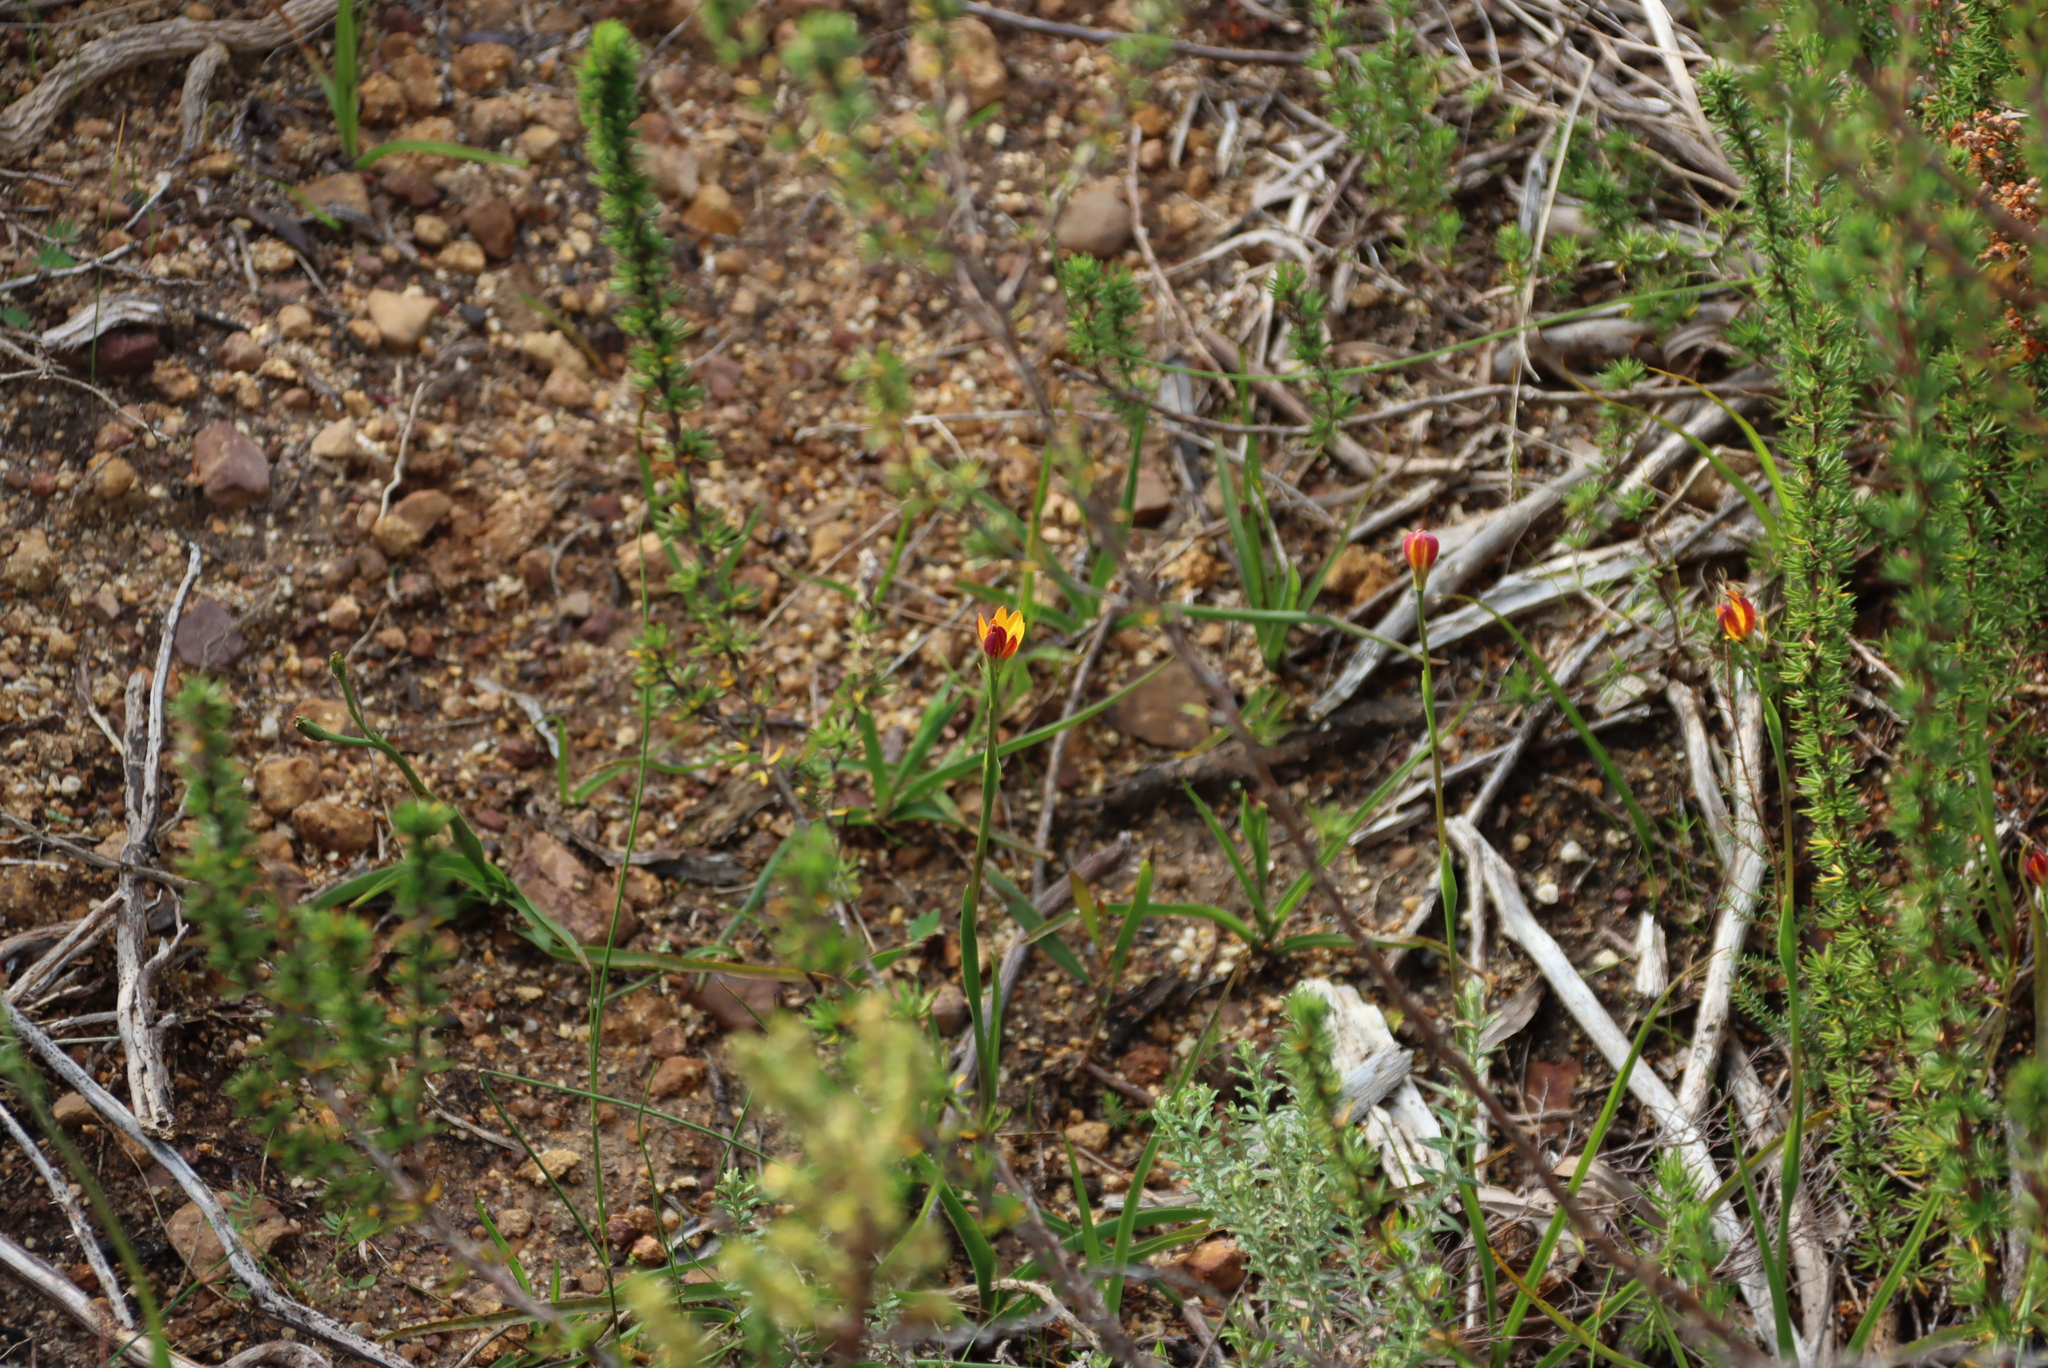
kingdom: Plantae
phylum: Tracheophyta
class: Liliopsida
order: Liliales
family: Colchicaceae
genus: Baeometra
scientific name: Baeometra uniflora
